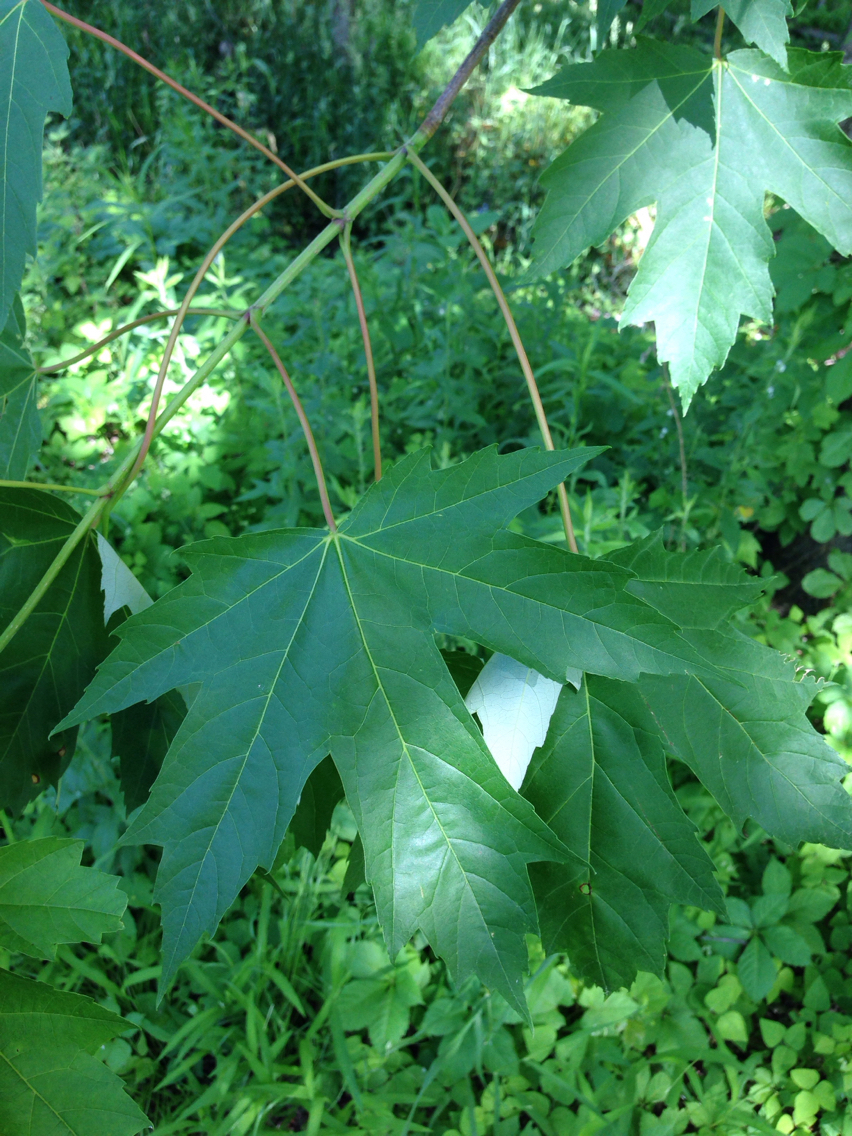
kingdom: Plantae
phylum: Tracheophyta
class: Magnoliopsida
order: Sapindales
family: Sapindaceae
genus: Acer
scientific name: Acer saccharinum
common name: Silver maple
